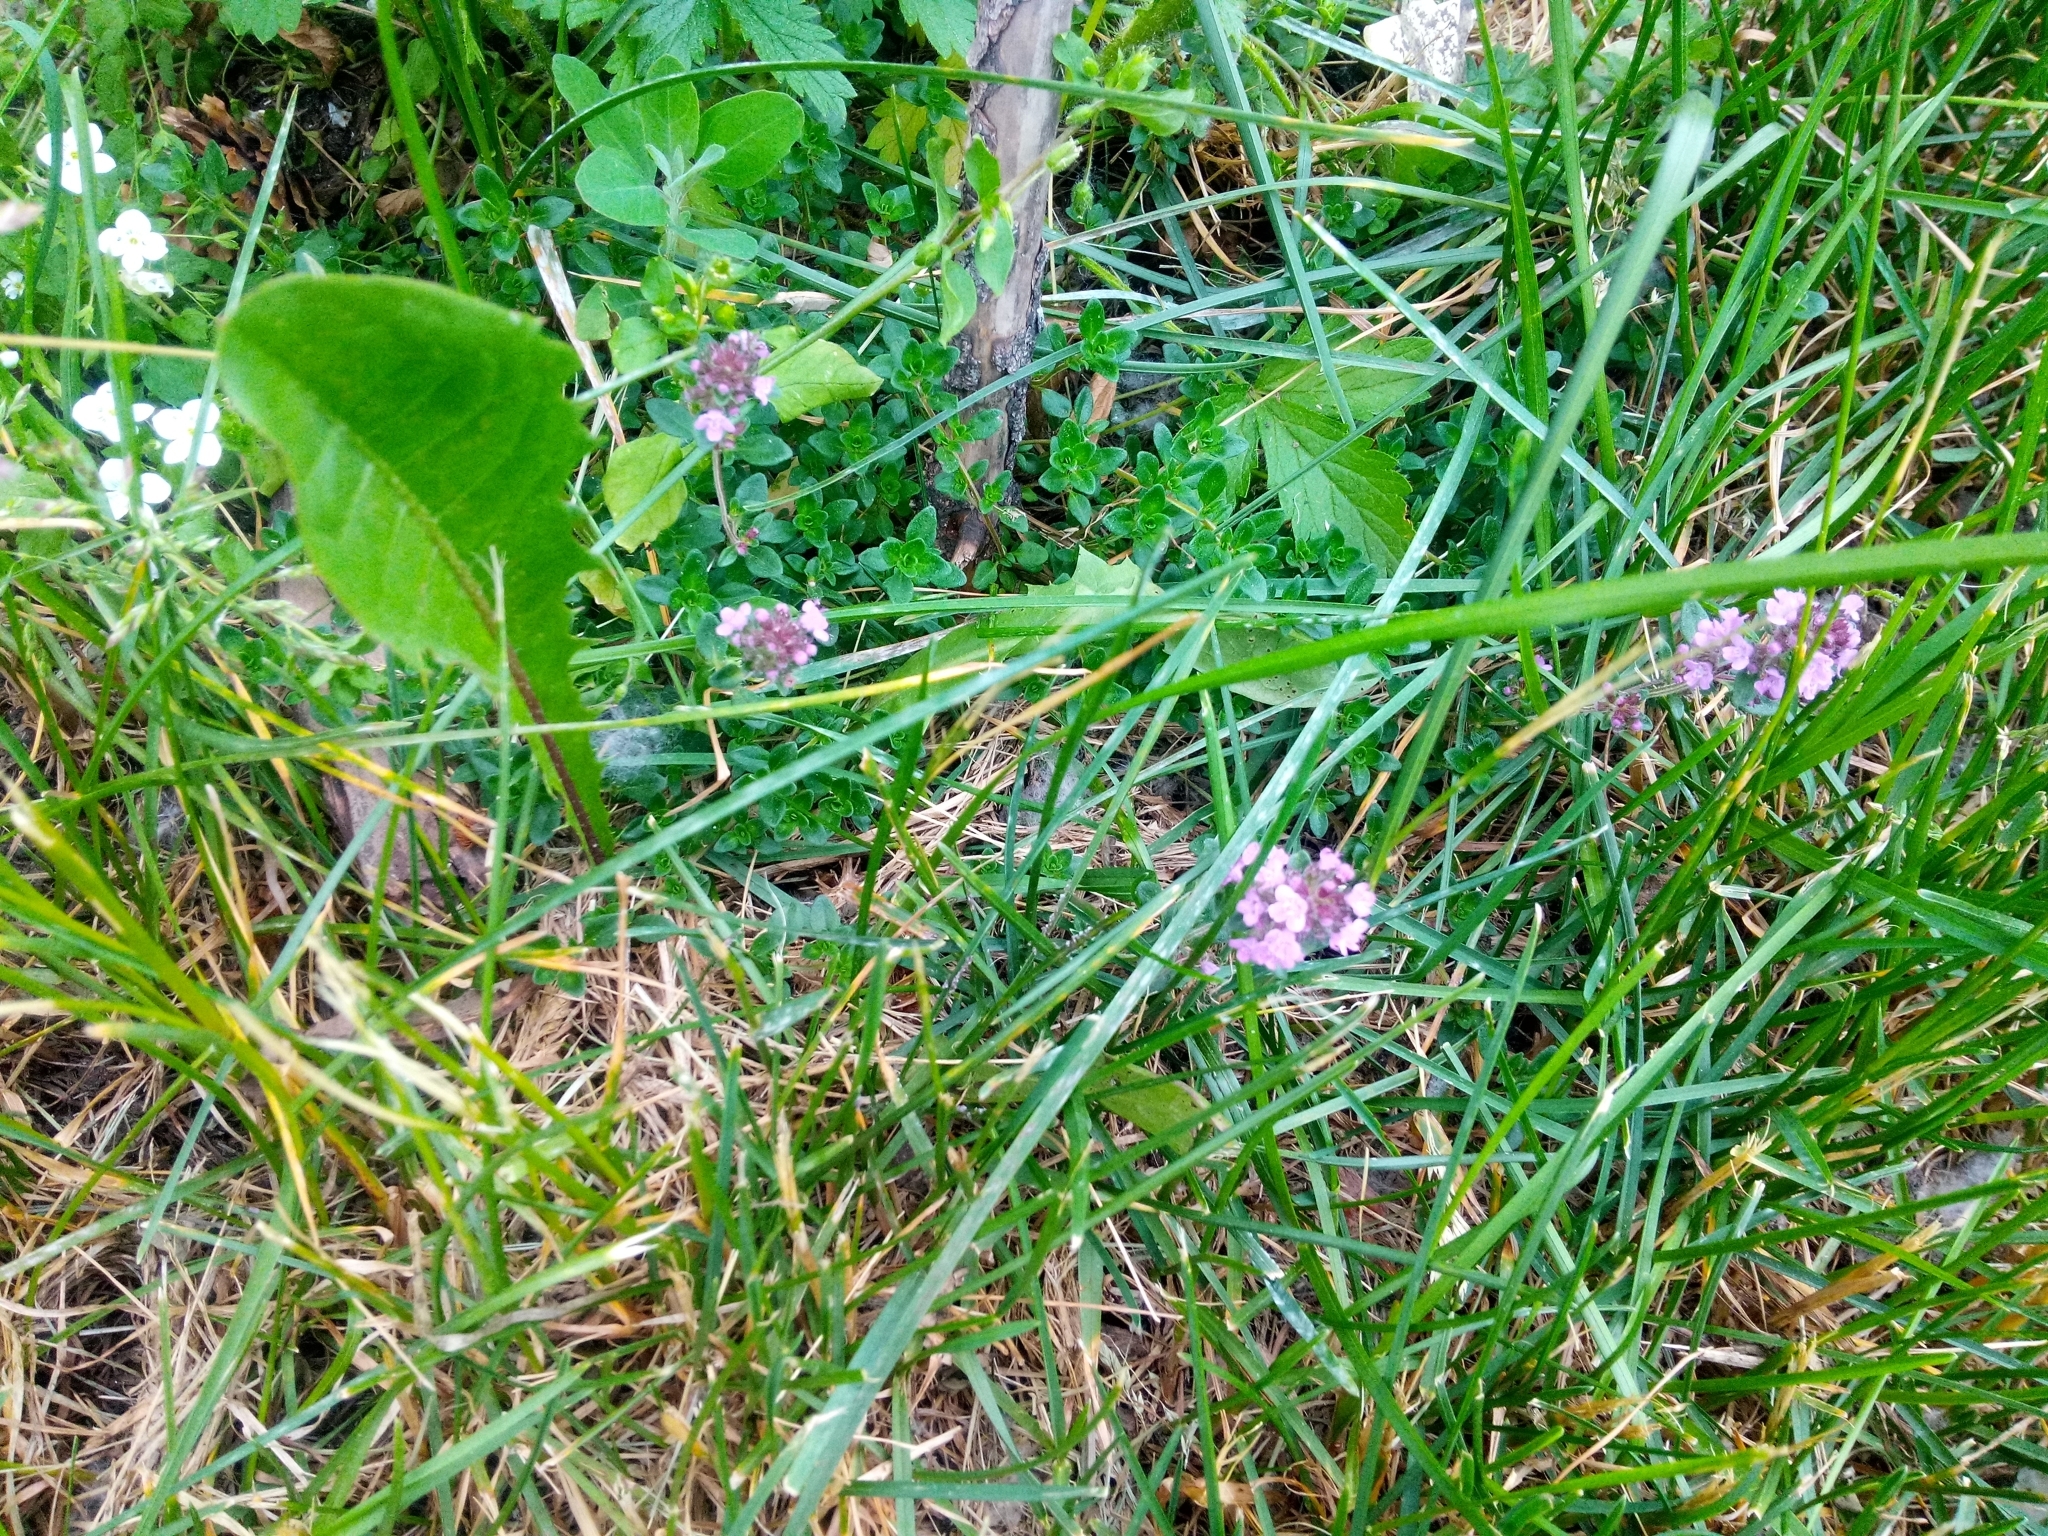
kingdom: Plantae
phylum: Tracheophyta
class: Magnoliopsida
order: Lamiales
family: Lamiaceae
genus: Thymus
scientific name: Thymus pulegioides
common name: Large thyme
